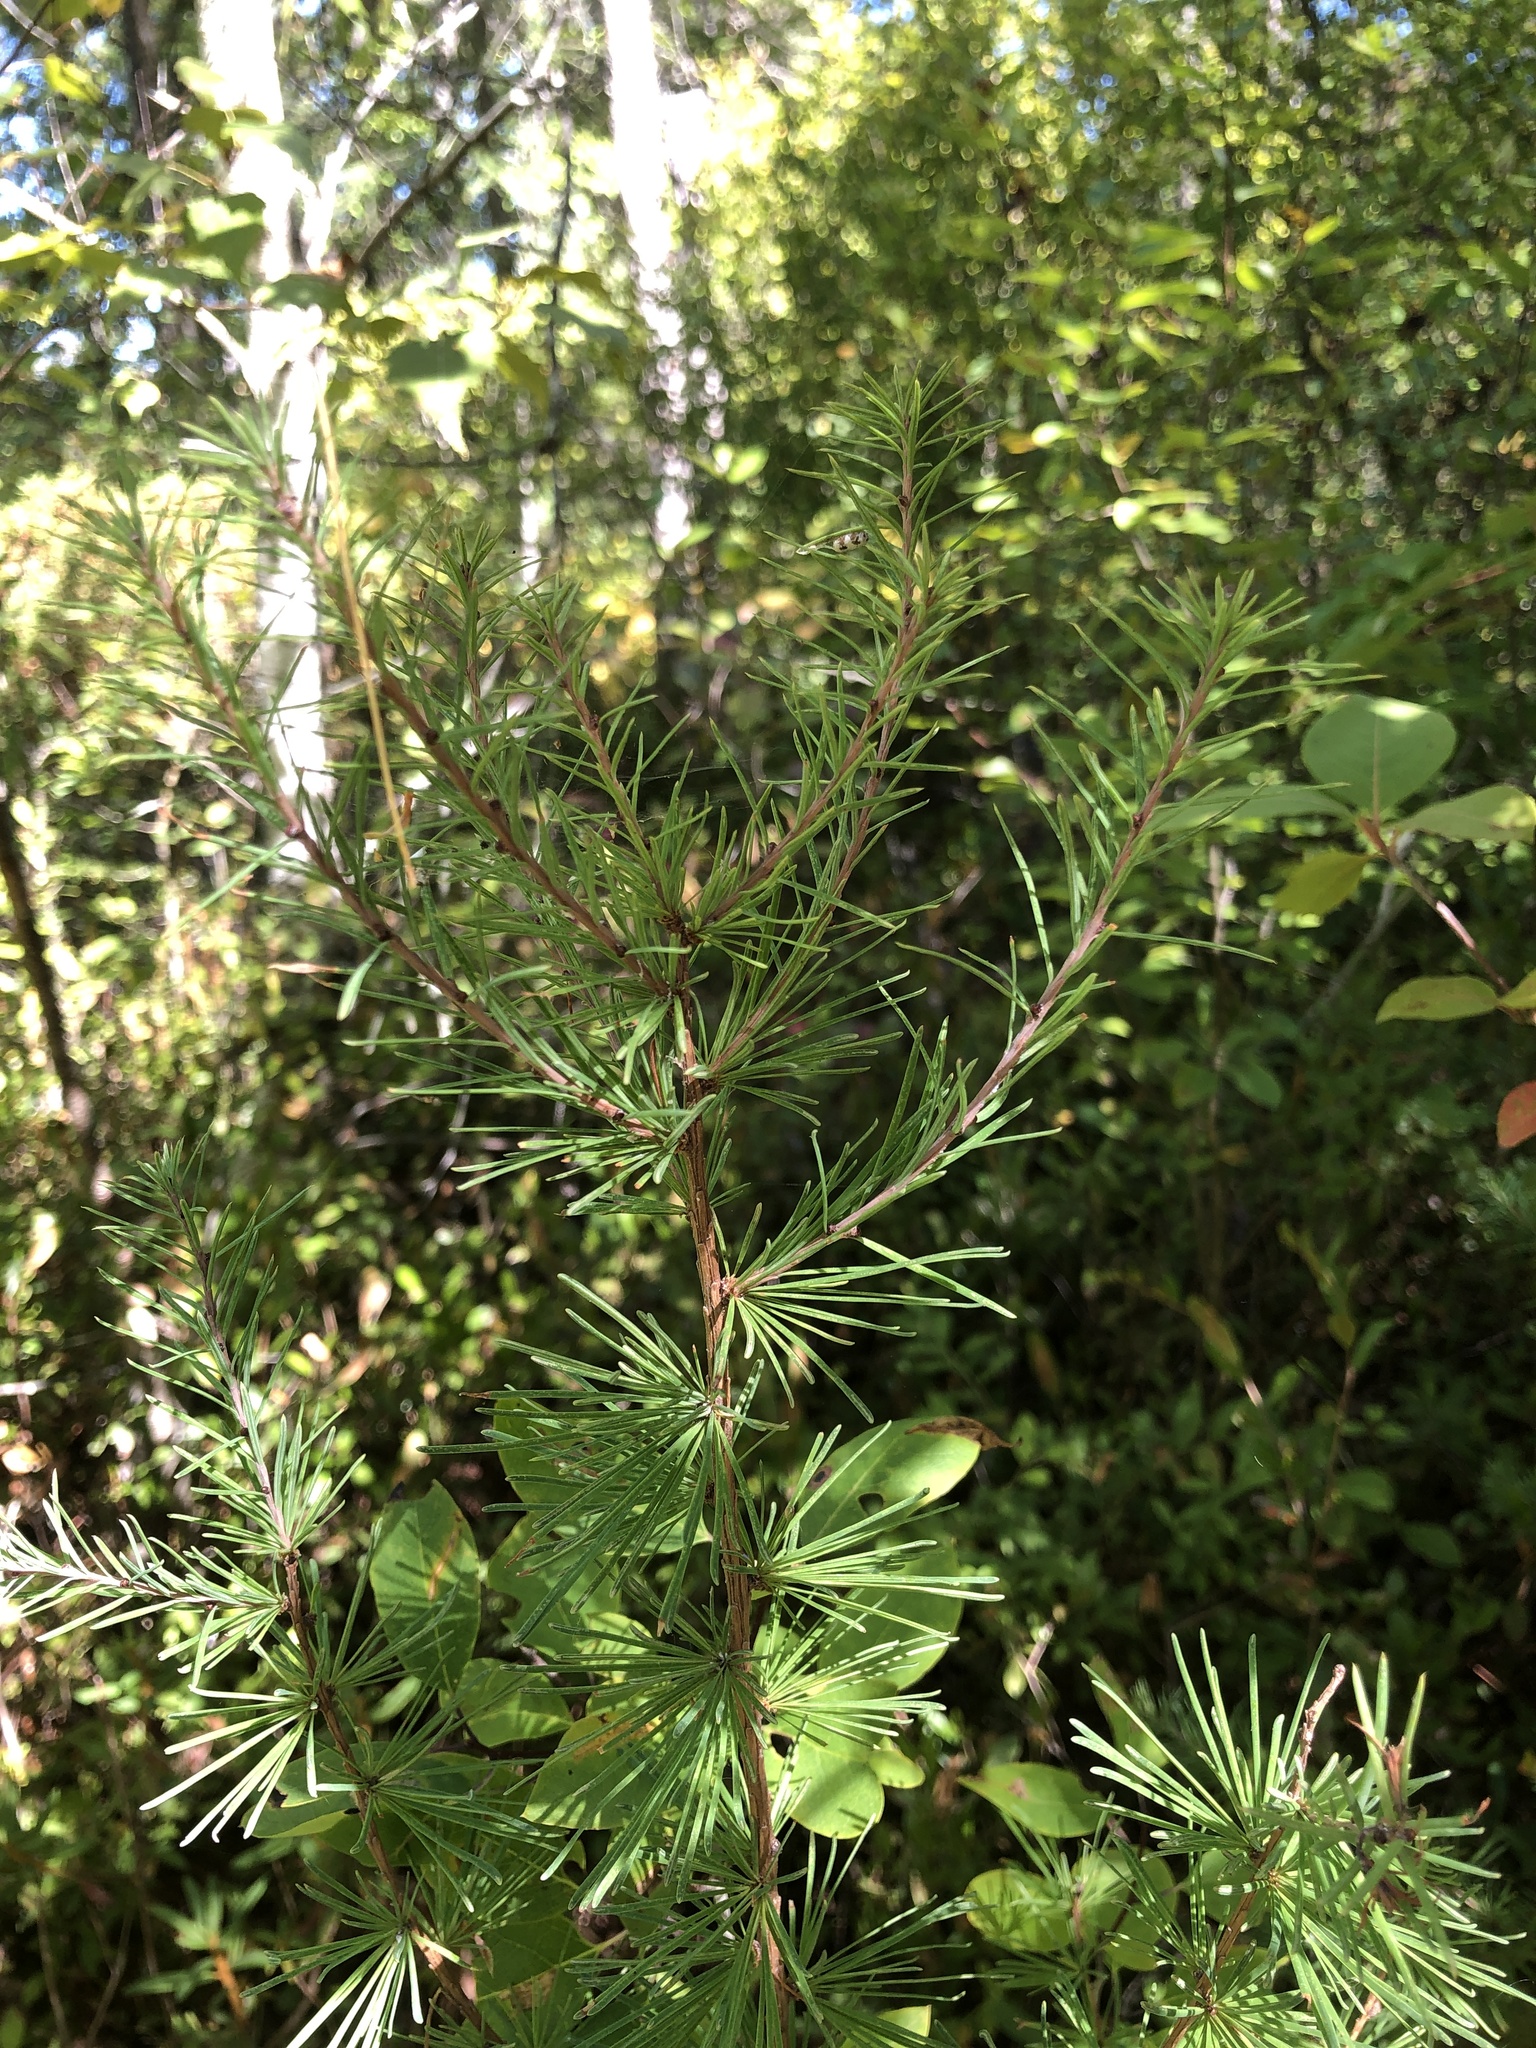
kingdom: Plantae
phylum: Tracheophyta
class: Pinopsida
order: Pinales
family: Pinaceae
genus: Larix
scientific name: Larix laricina
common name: American larch
